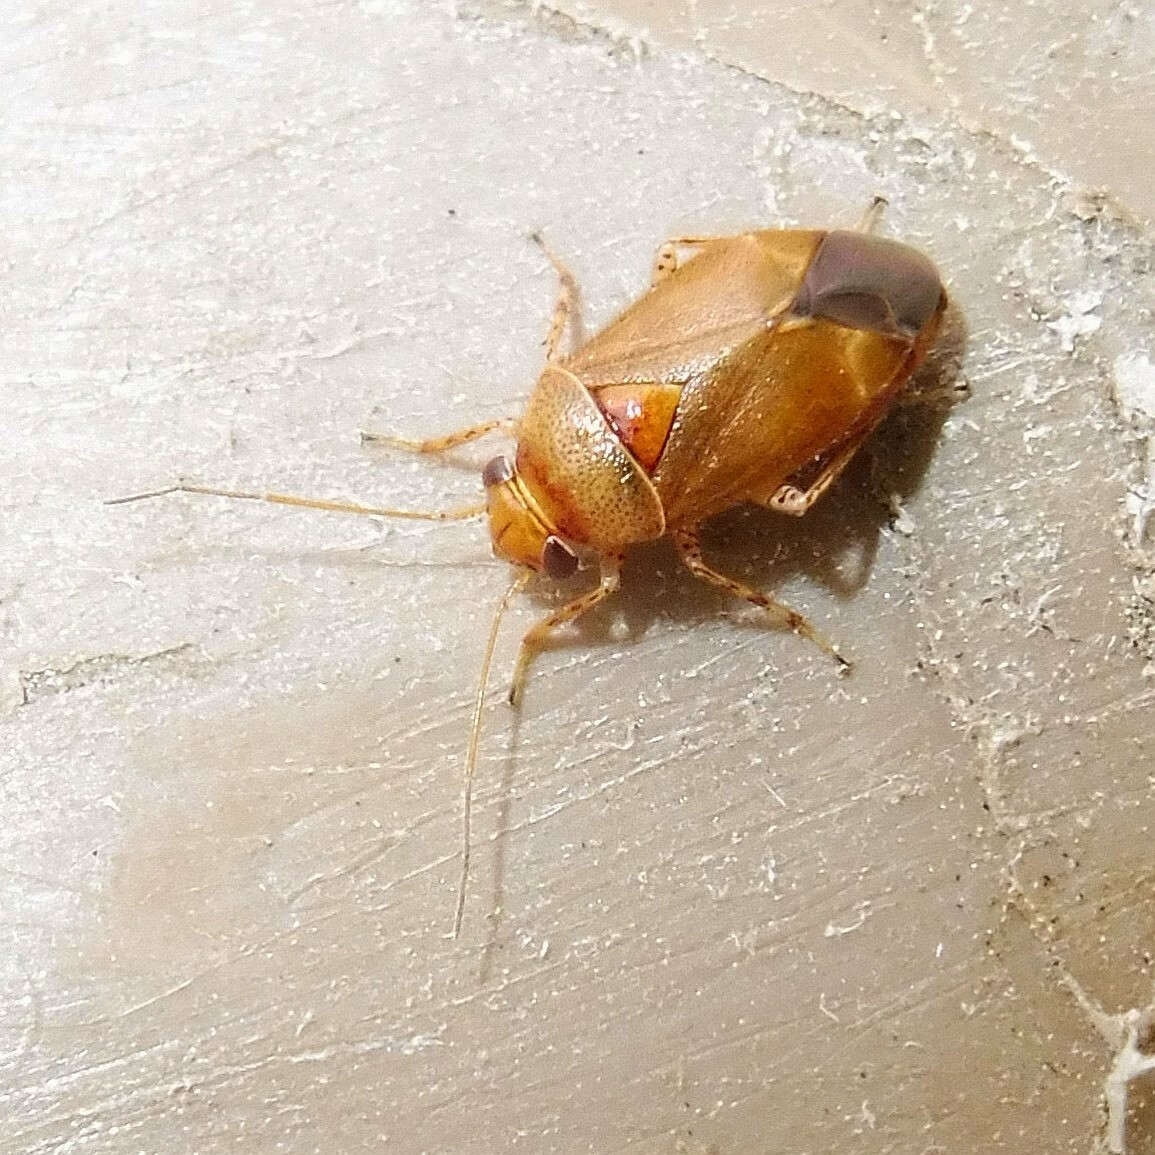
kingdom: Animalia
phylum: Arthropoda
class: Insecta
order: Hemiptera
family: Miridae
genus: Camptozygum
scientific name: Camptozygum aequale
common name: Plant bug
